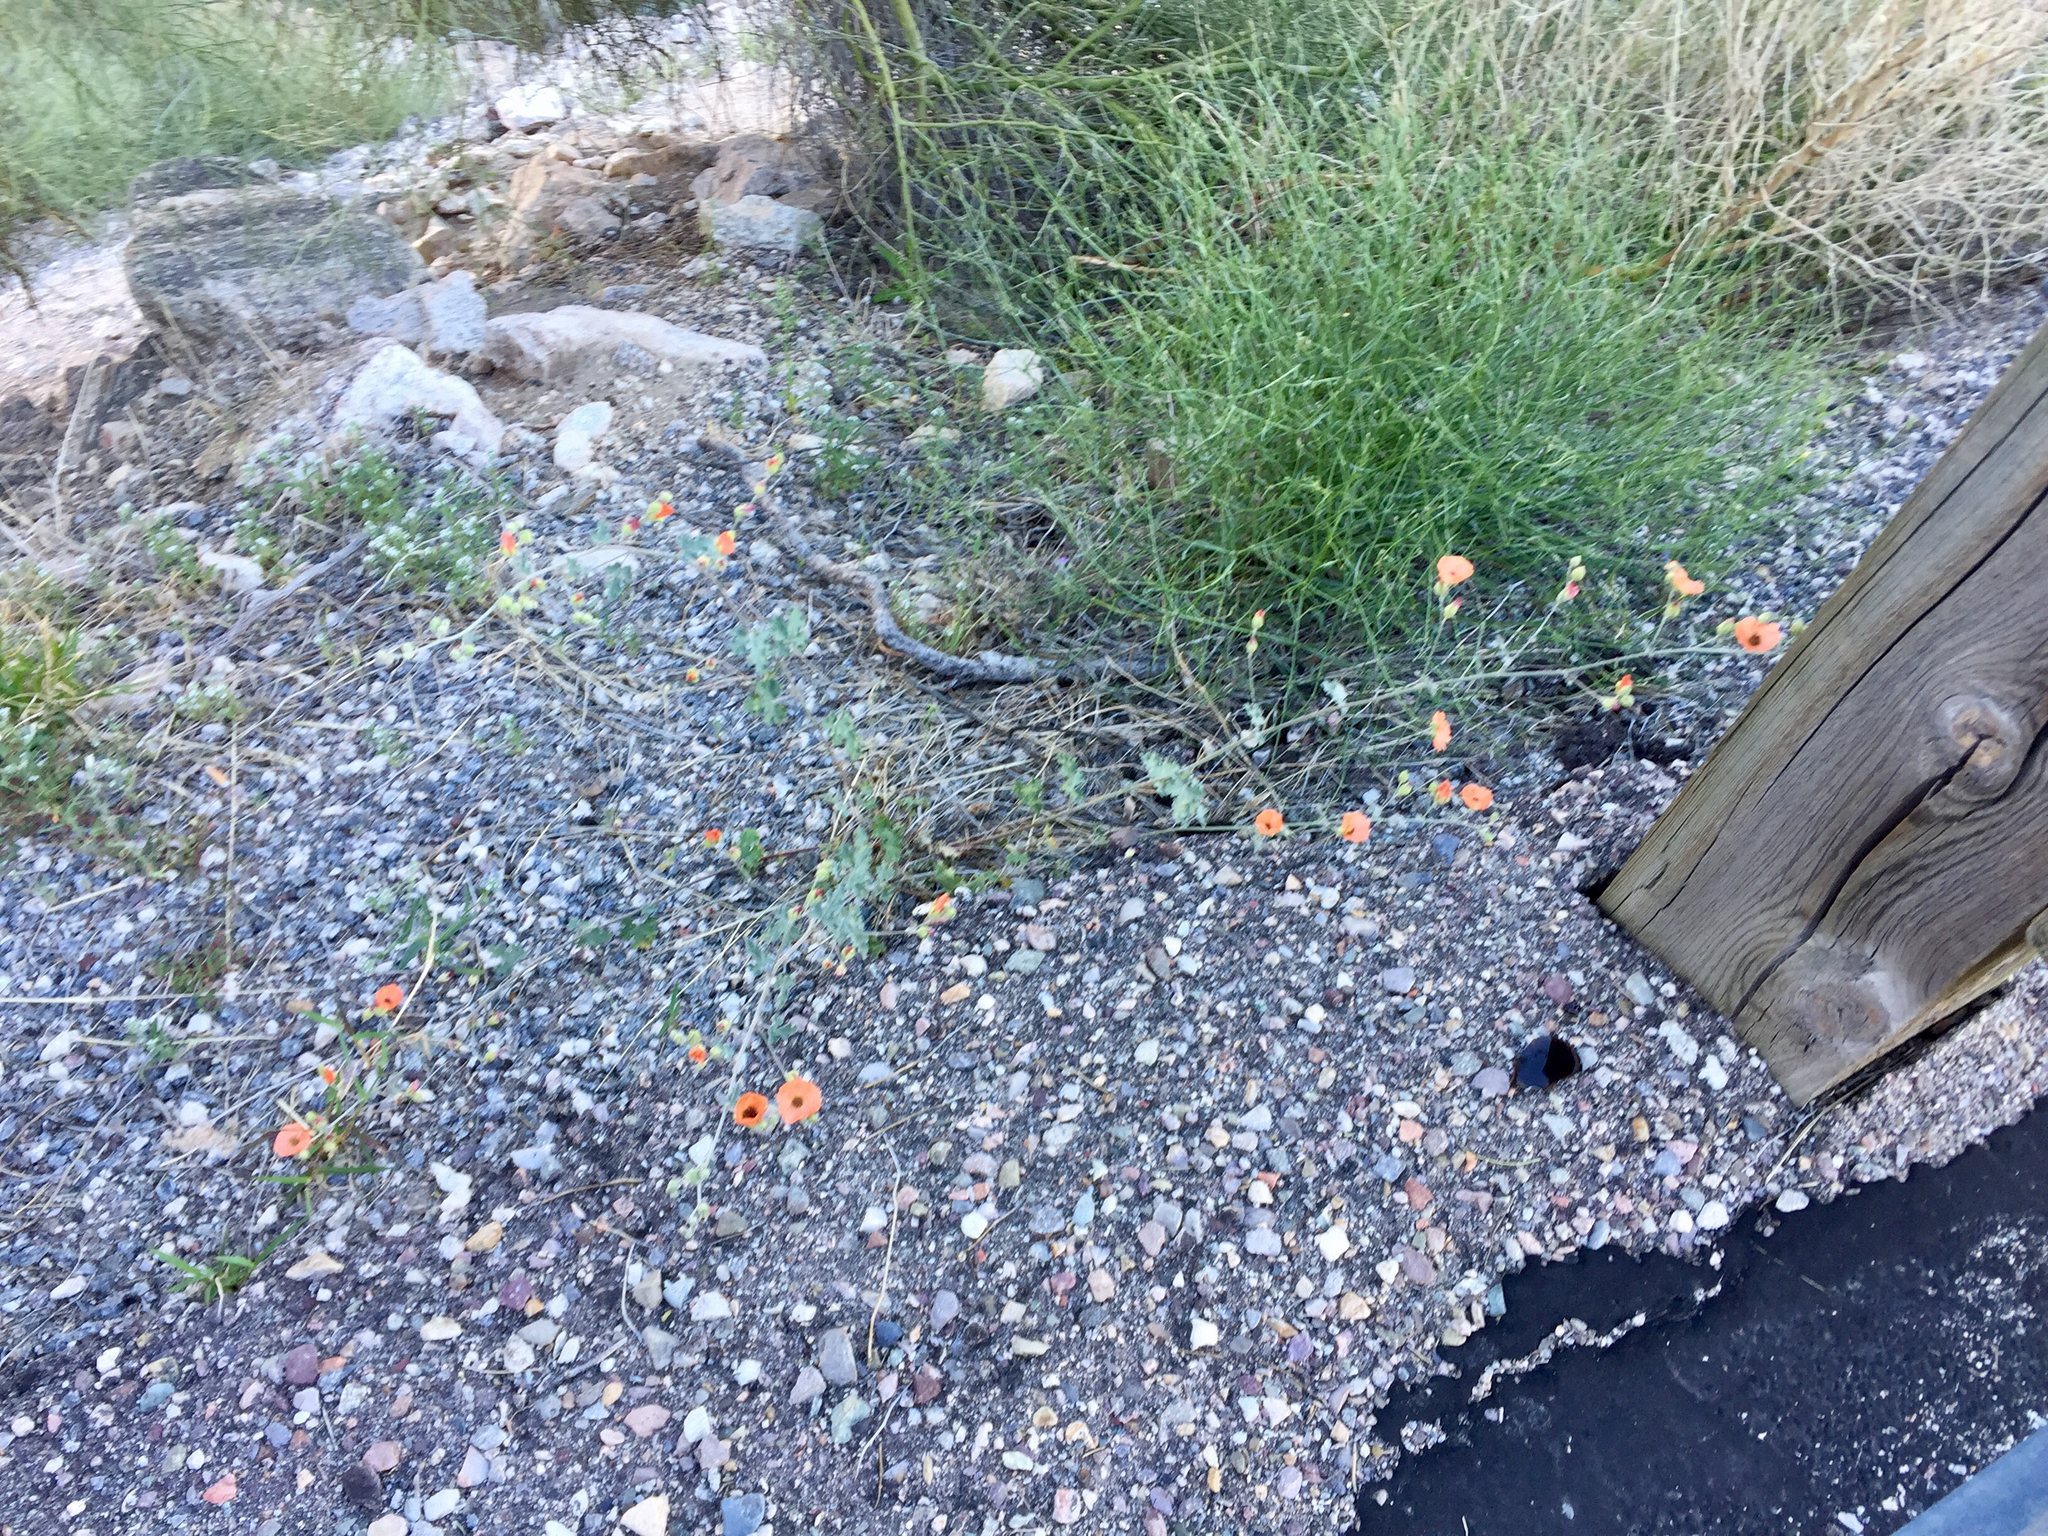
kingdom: Plantae
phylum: Tracheophyta
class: Magnoliopsida
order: Malvales
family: Malvaceae
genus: Sphaeralcea
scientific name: Sphaeralcea laxa
